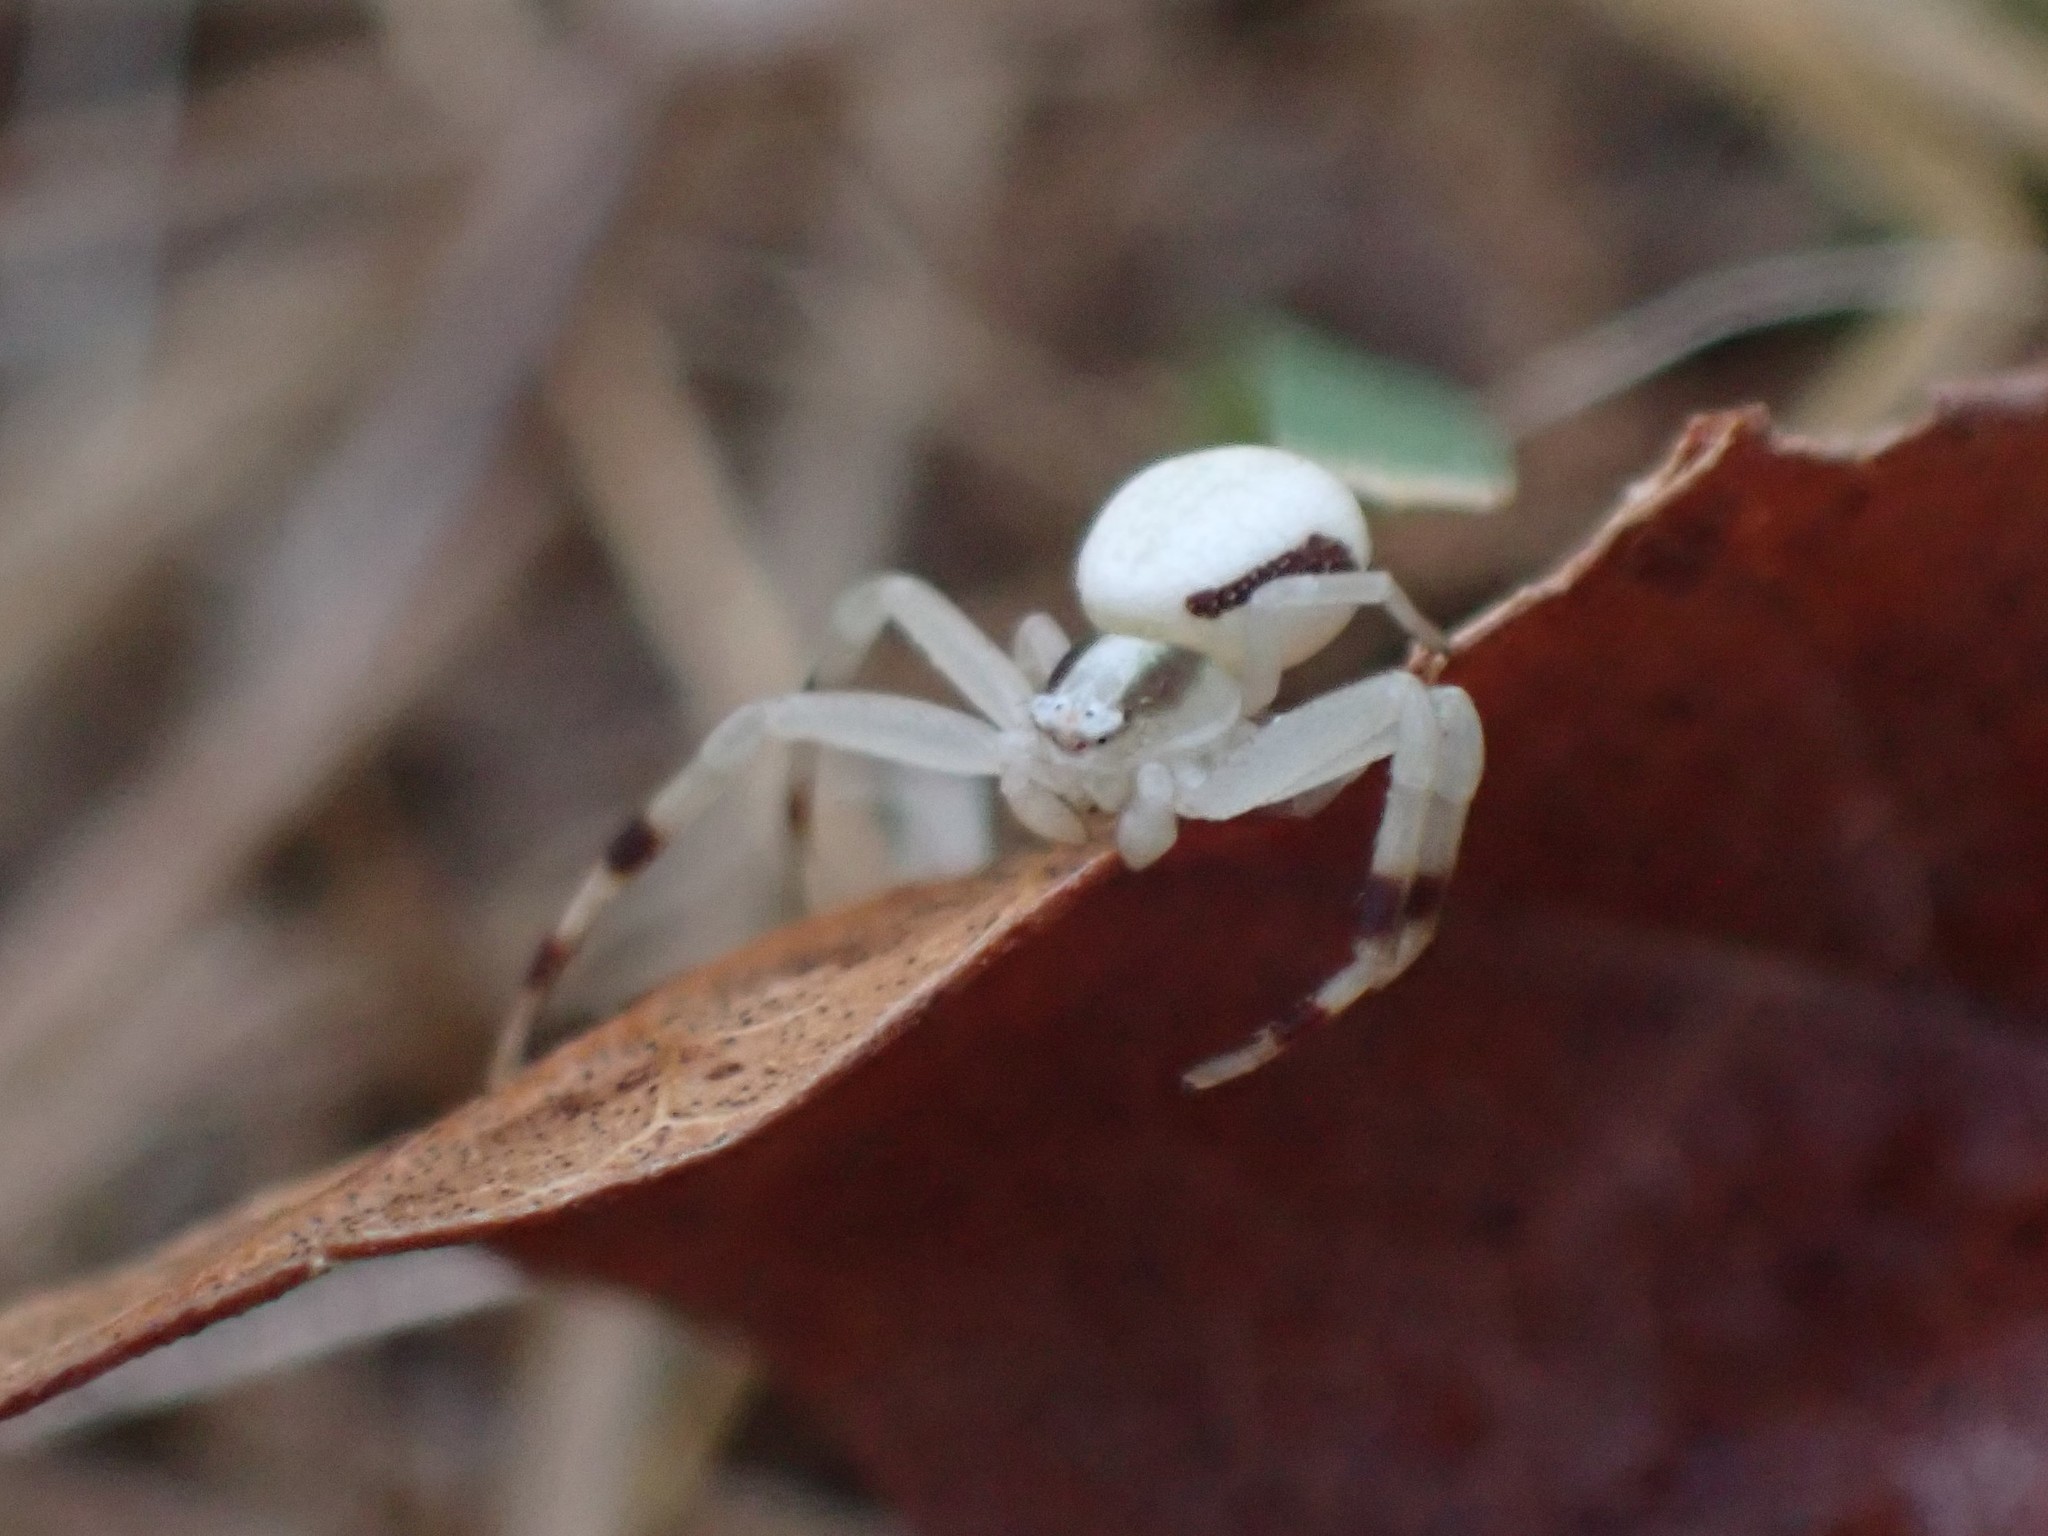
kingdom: Animalia
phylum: Arthropoda
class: Arachnida
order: Araneae
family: Thomisidae
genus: Misumena
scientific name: Misumena vatia
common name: Goldenrod crab spider
